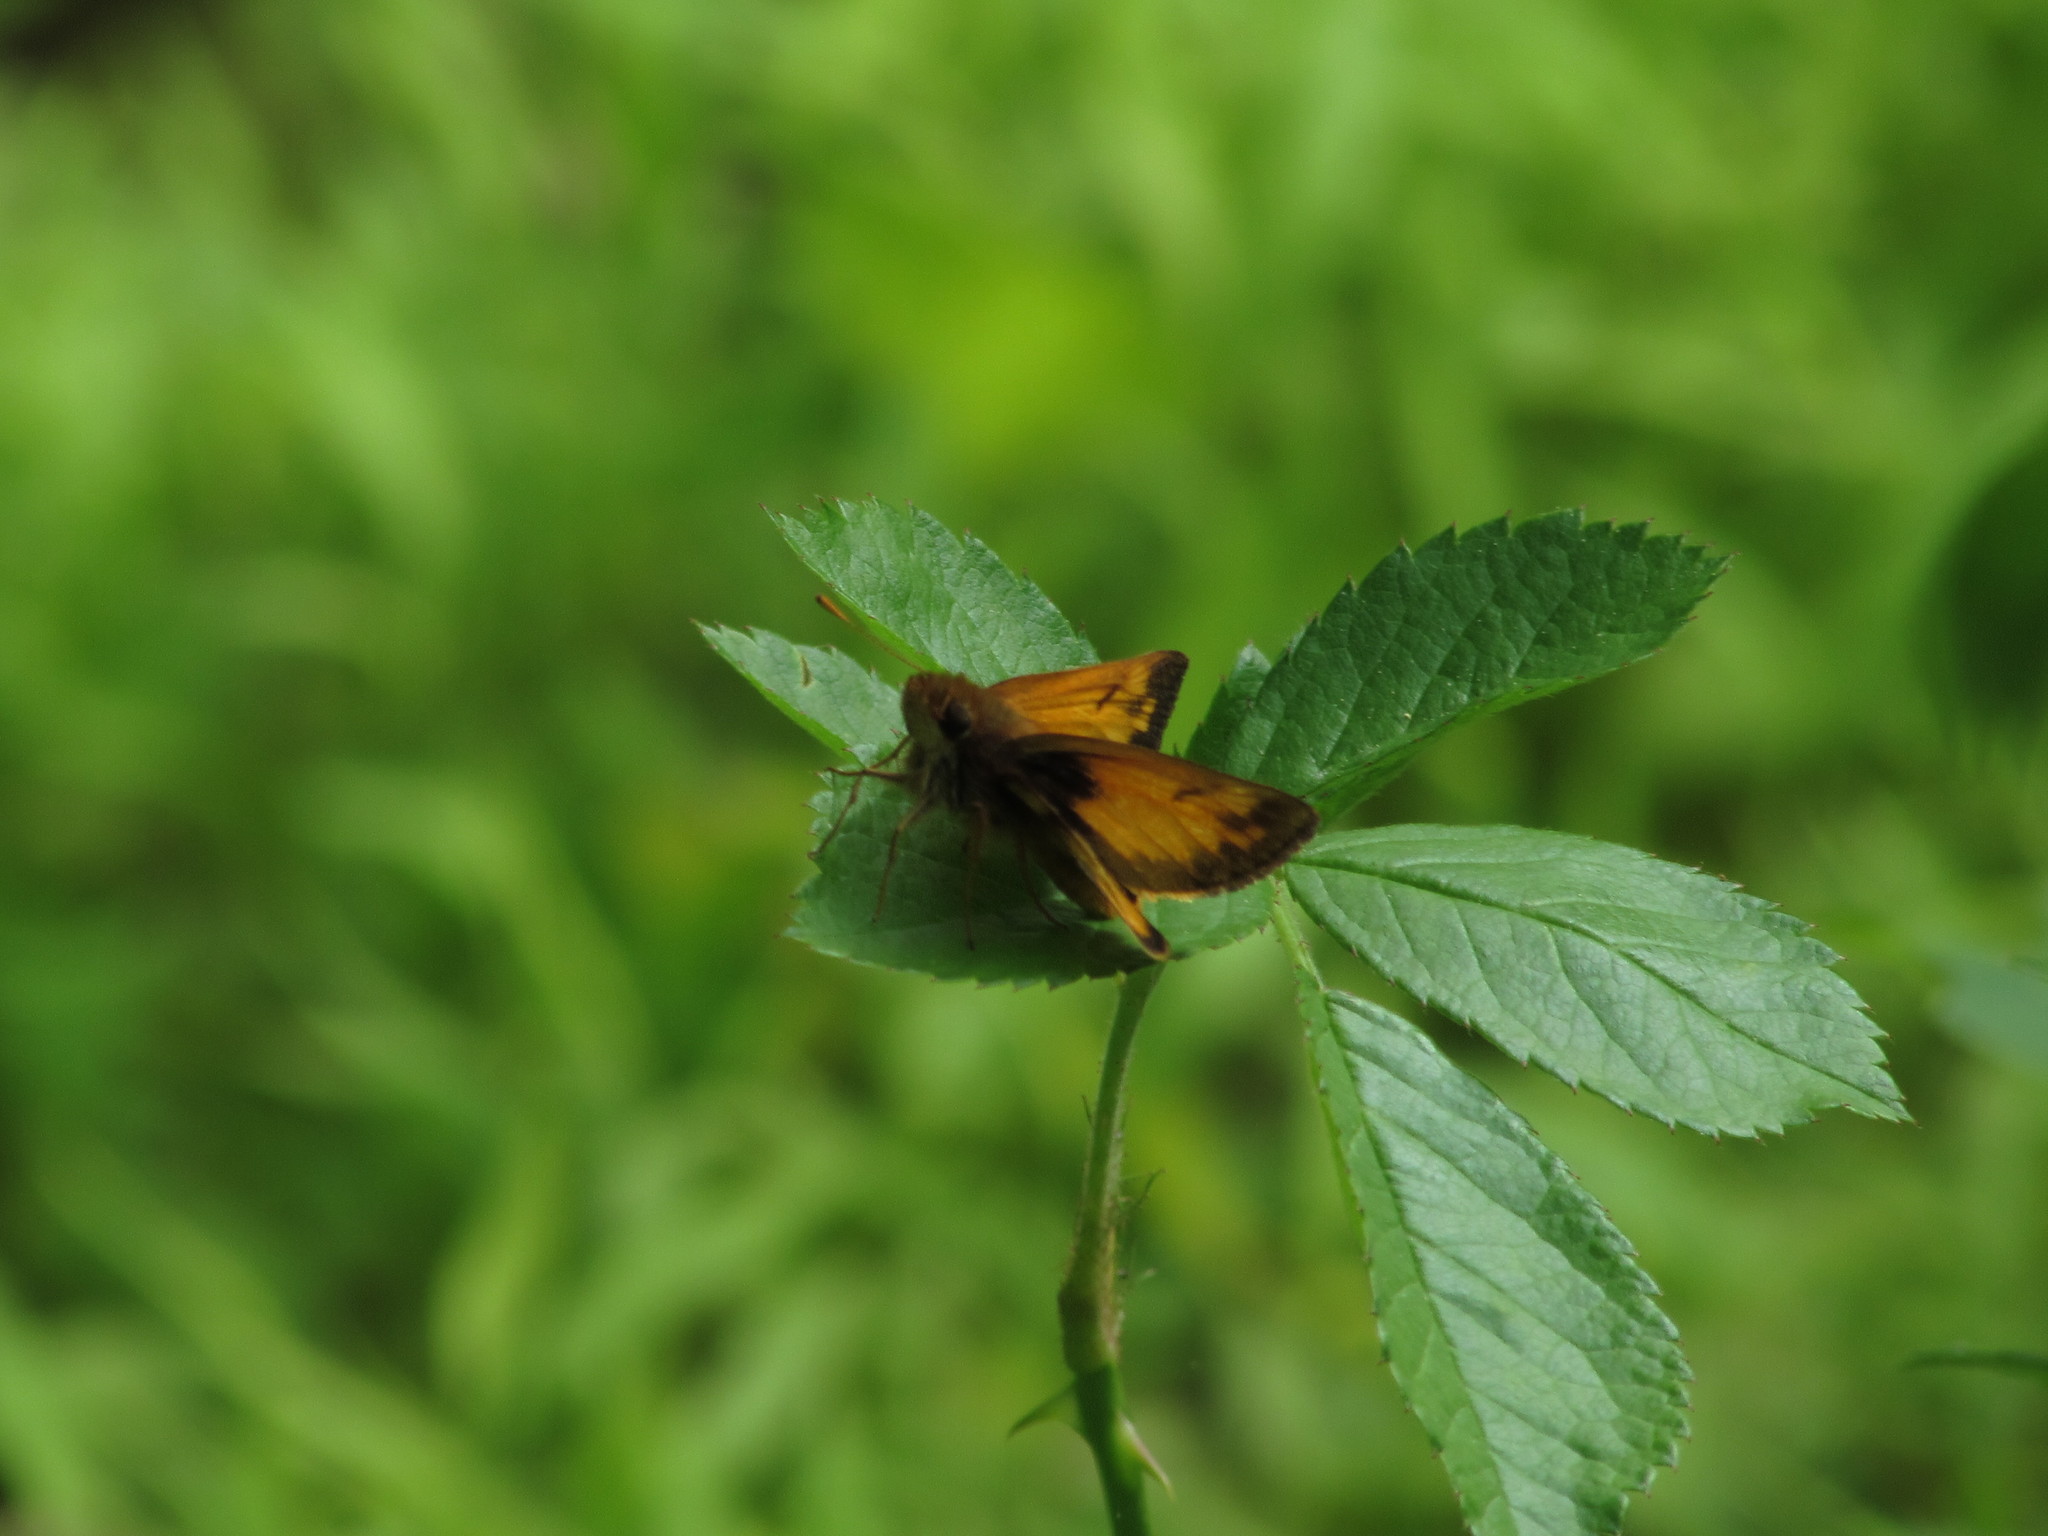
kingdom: Animalia
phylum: Arthropoda
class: Insecta
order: Lepidoptera
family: Hesperiidae
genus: Lon
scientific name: Lon zabulon
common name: Zabulon skipper
